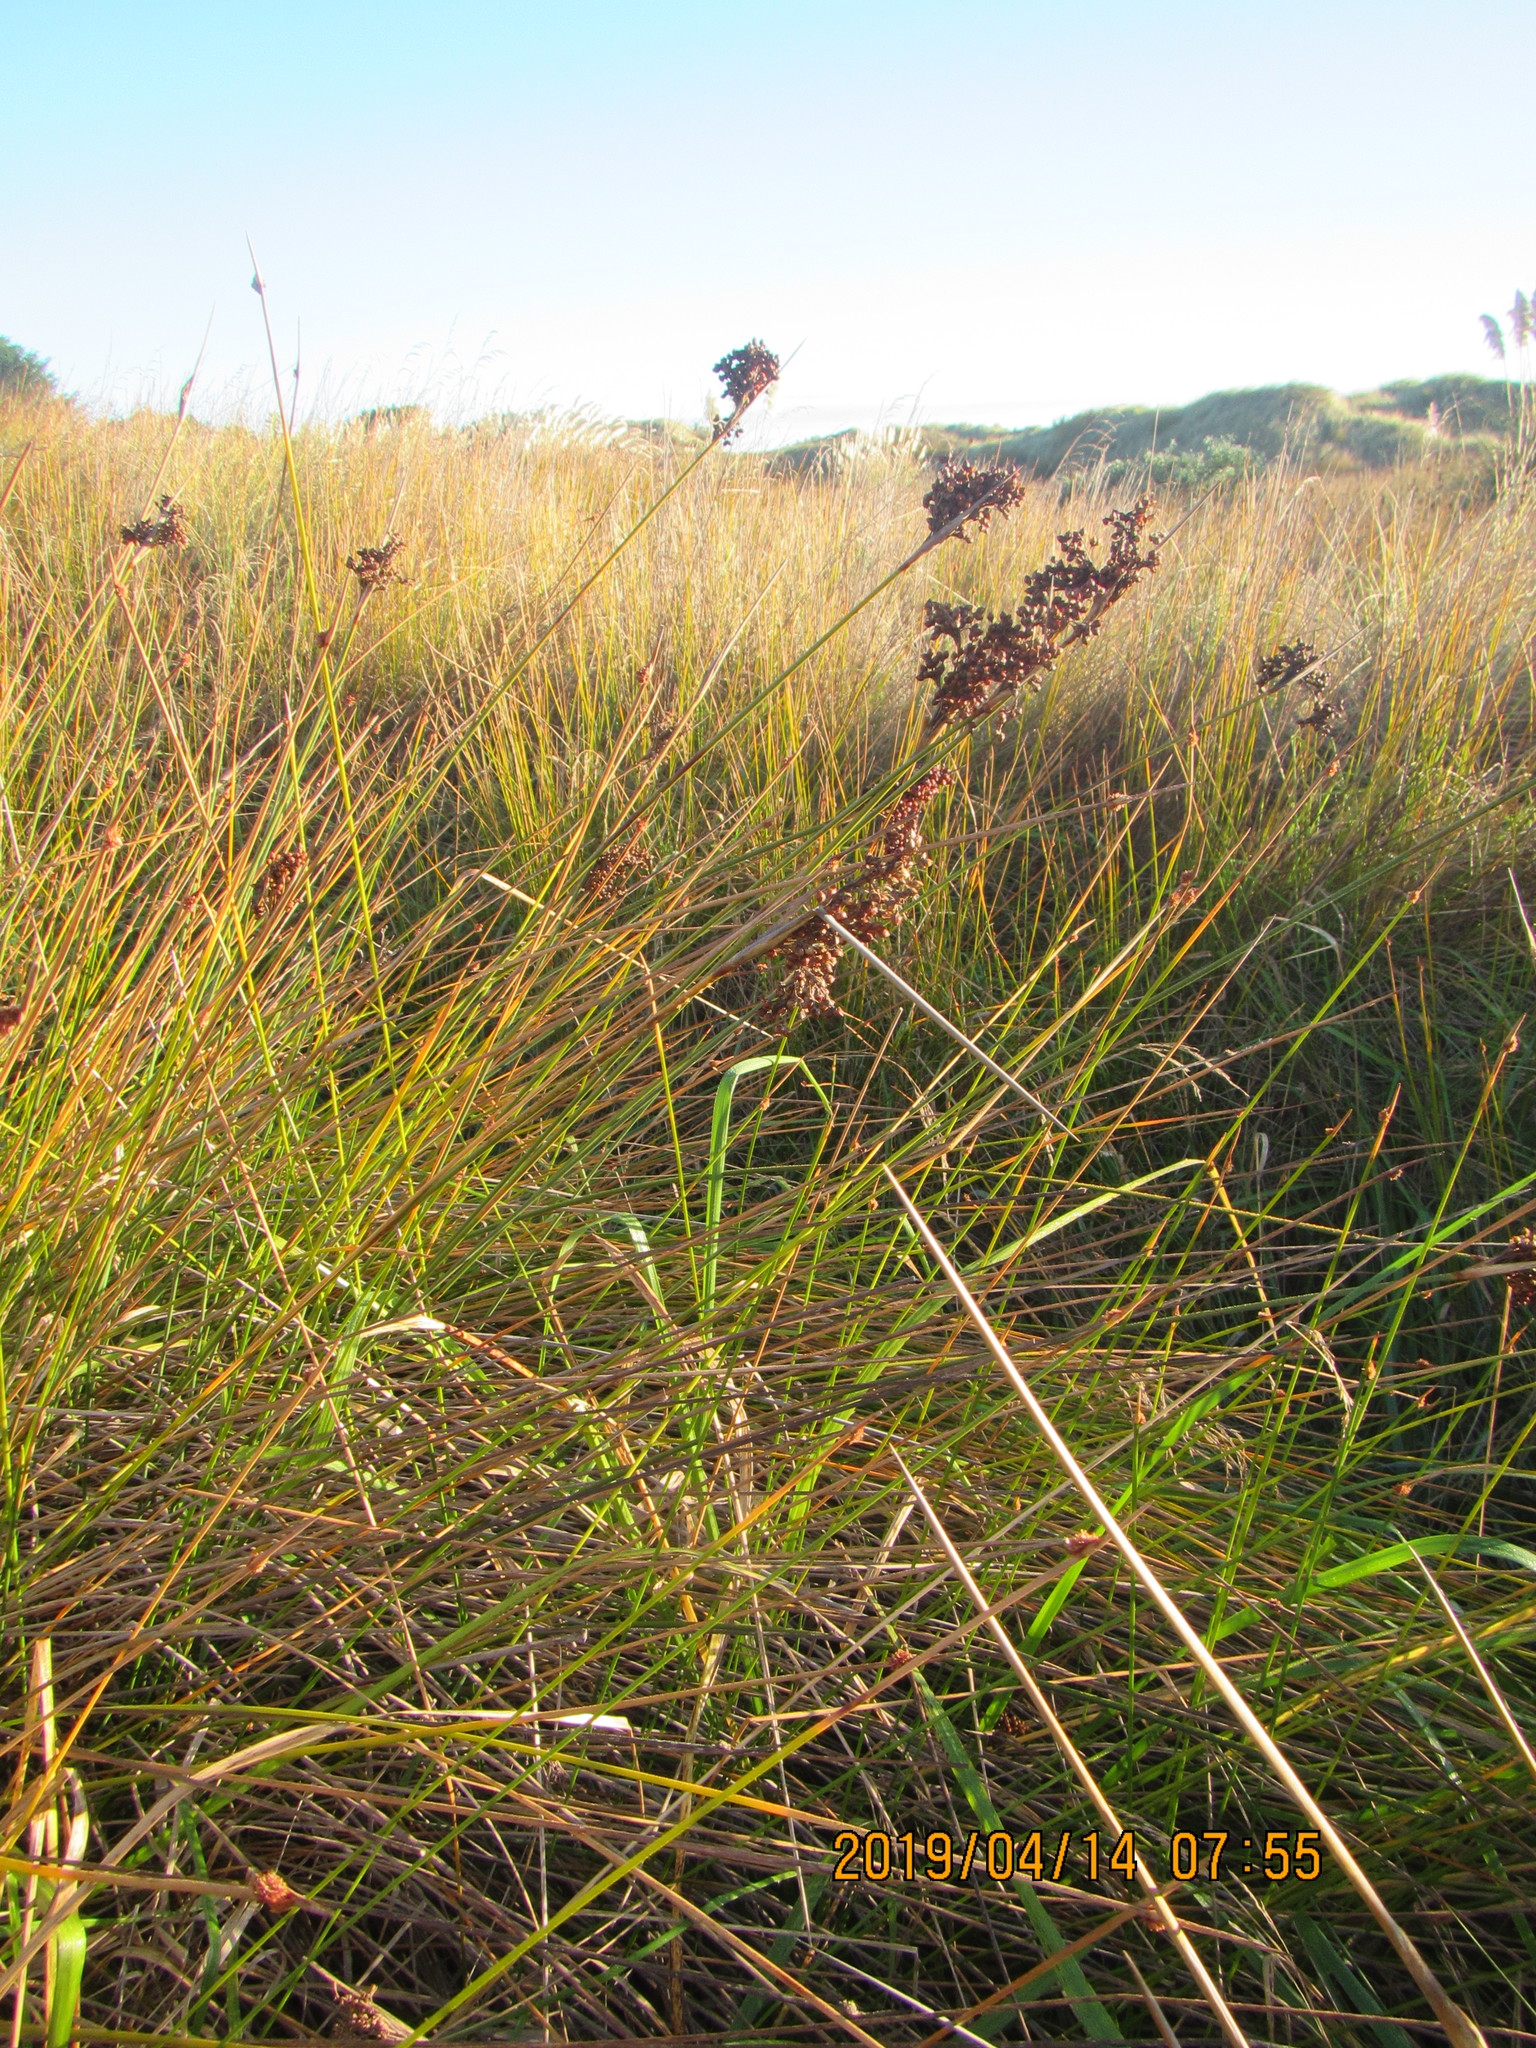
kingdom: Plantae
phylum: Tracheophyta
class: Liliopsida
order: Poales
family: Juncaceae
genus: Juncus
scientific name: Juncus acutus
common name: Sharp rush
